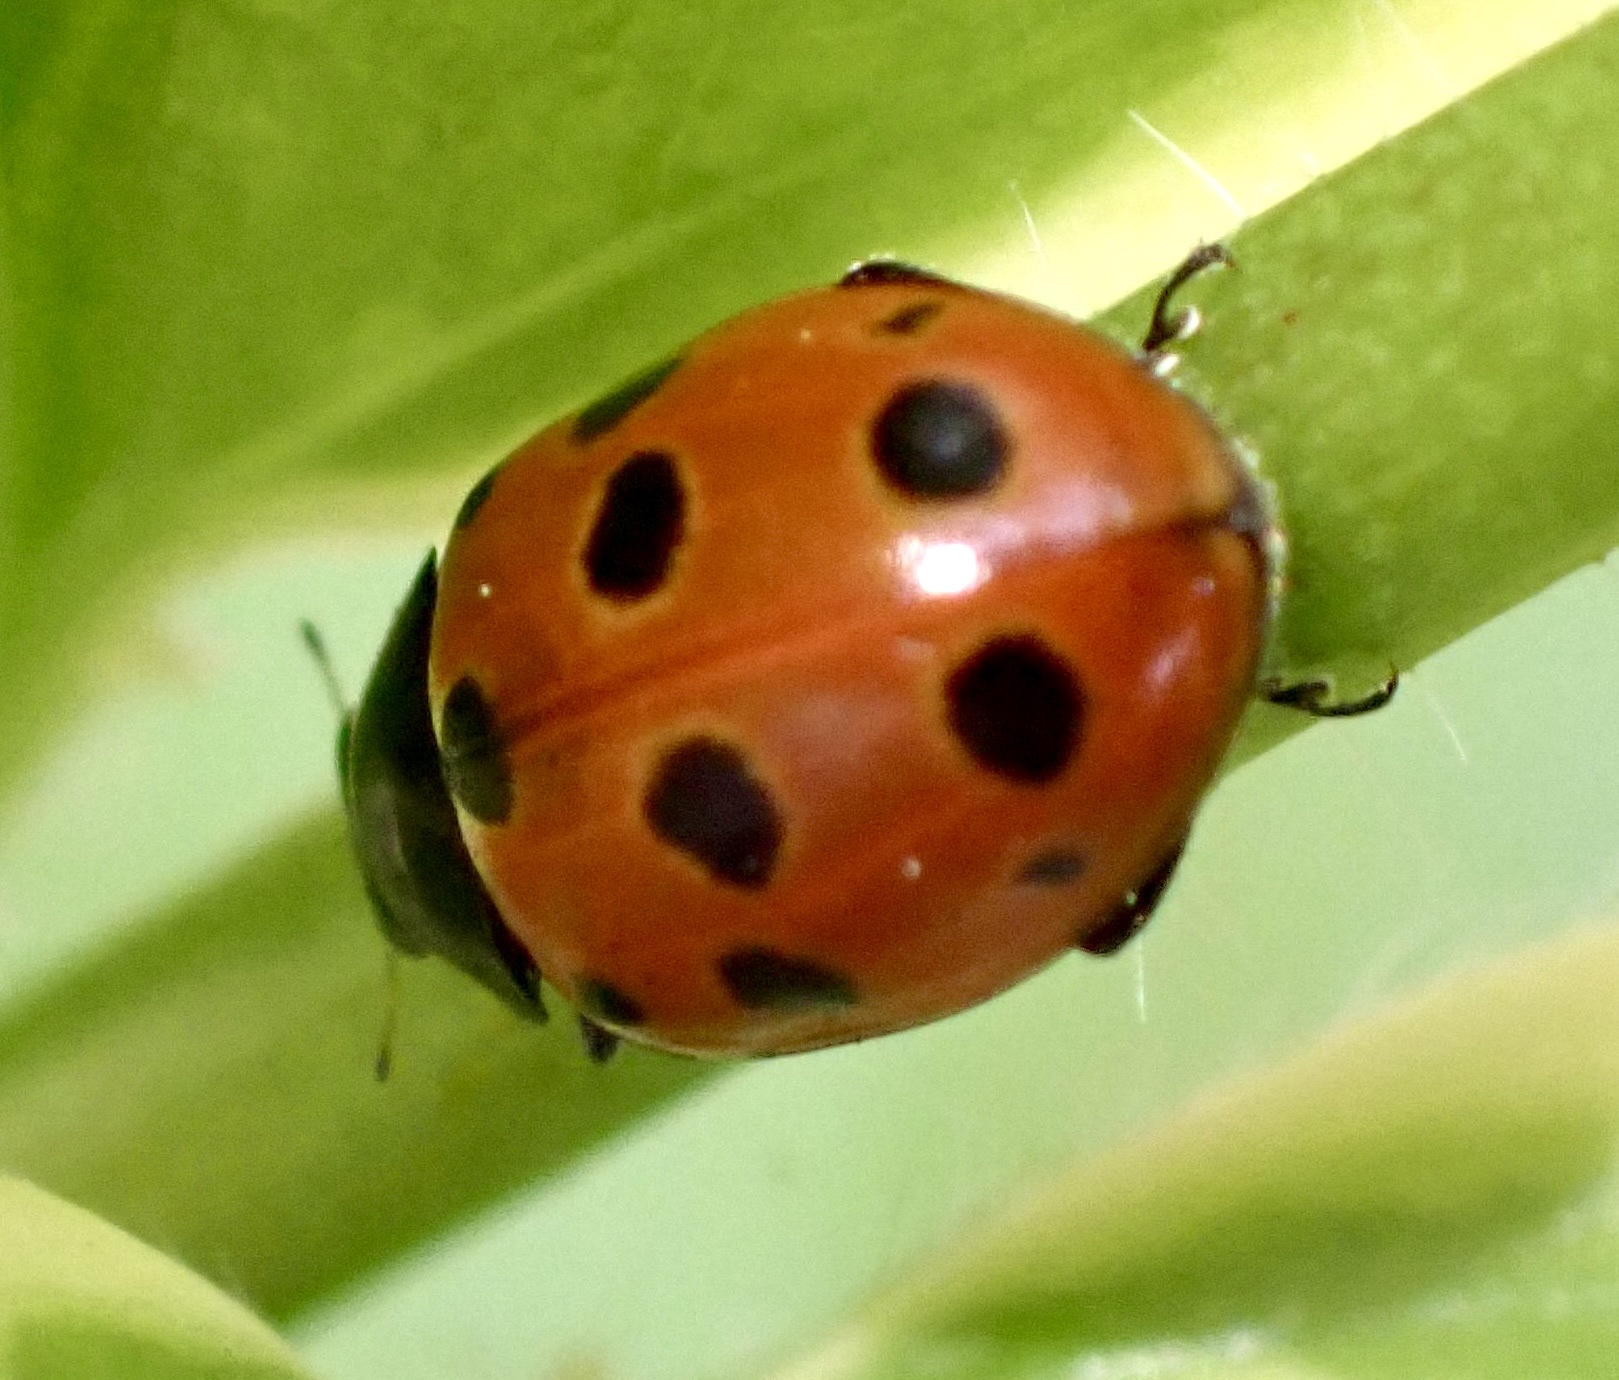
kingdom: Animalia
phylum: Arthropoda
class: Insecta
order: Coleoptera
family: Coccinellidae
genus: Coccinella
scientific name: Coccinella undecimpunctata
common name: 11-spot ladybird
